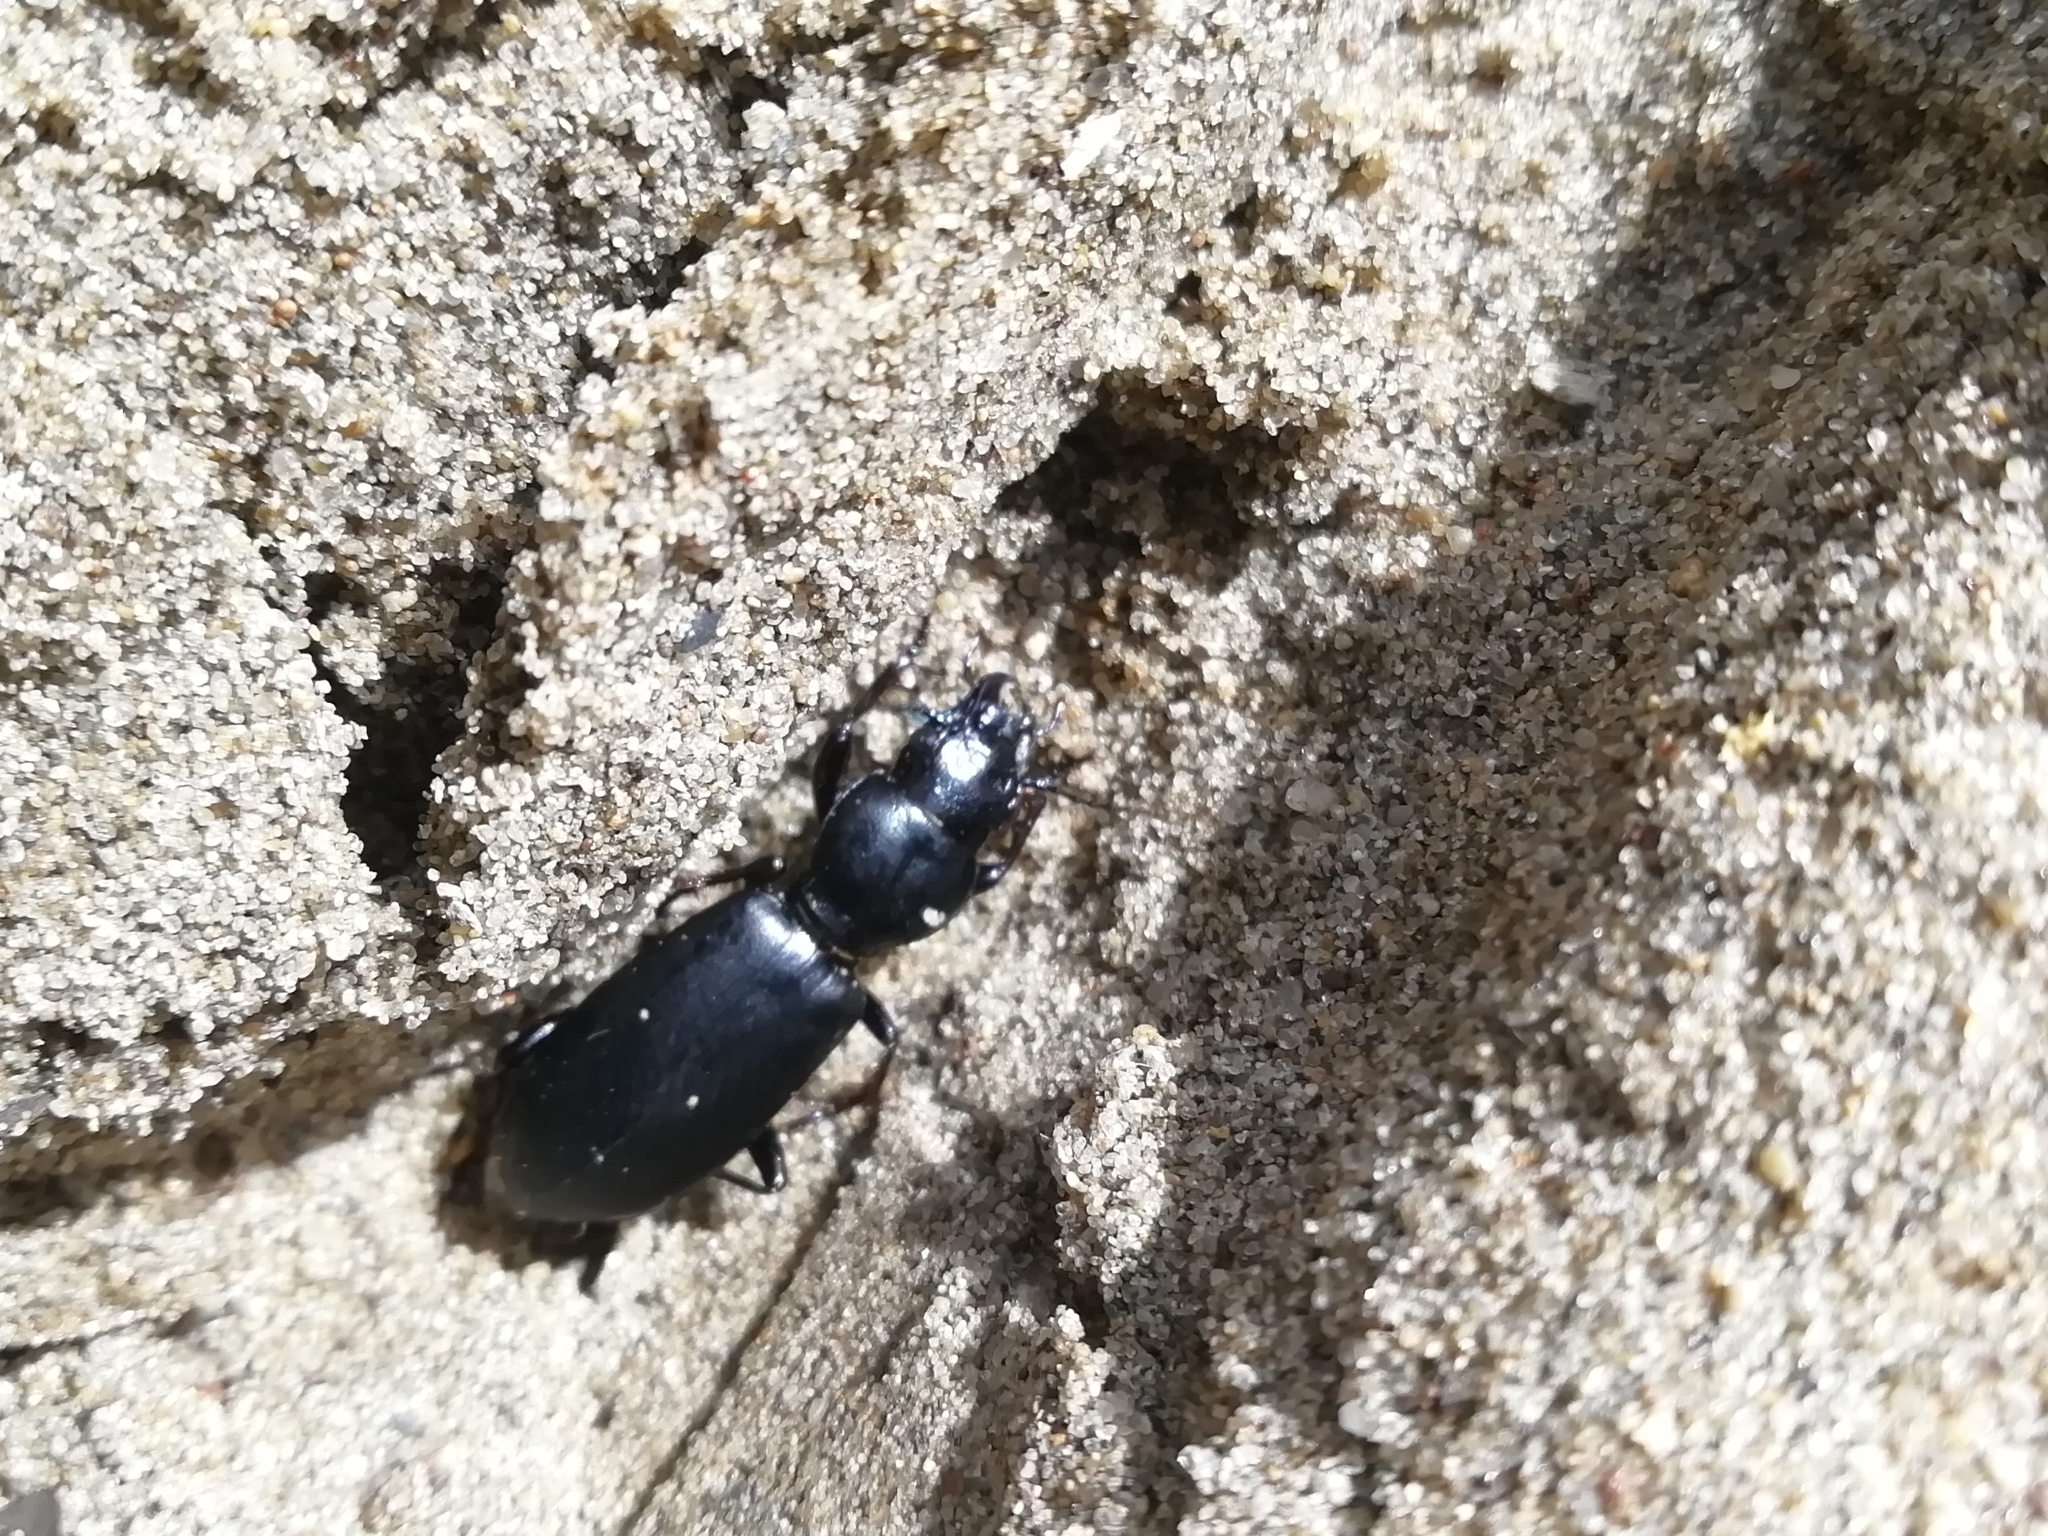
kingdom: Animalia
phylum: Arthropoda
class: Insecta
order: Coleoptera
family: Carabidae
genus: Broscus
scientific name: Broscus cephalotes
